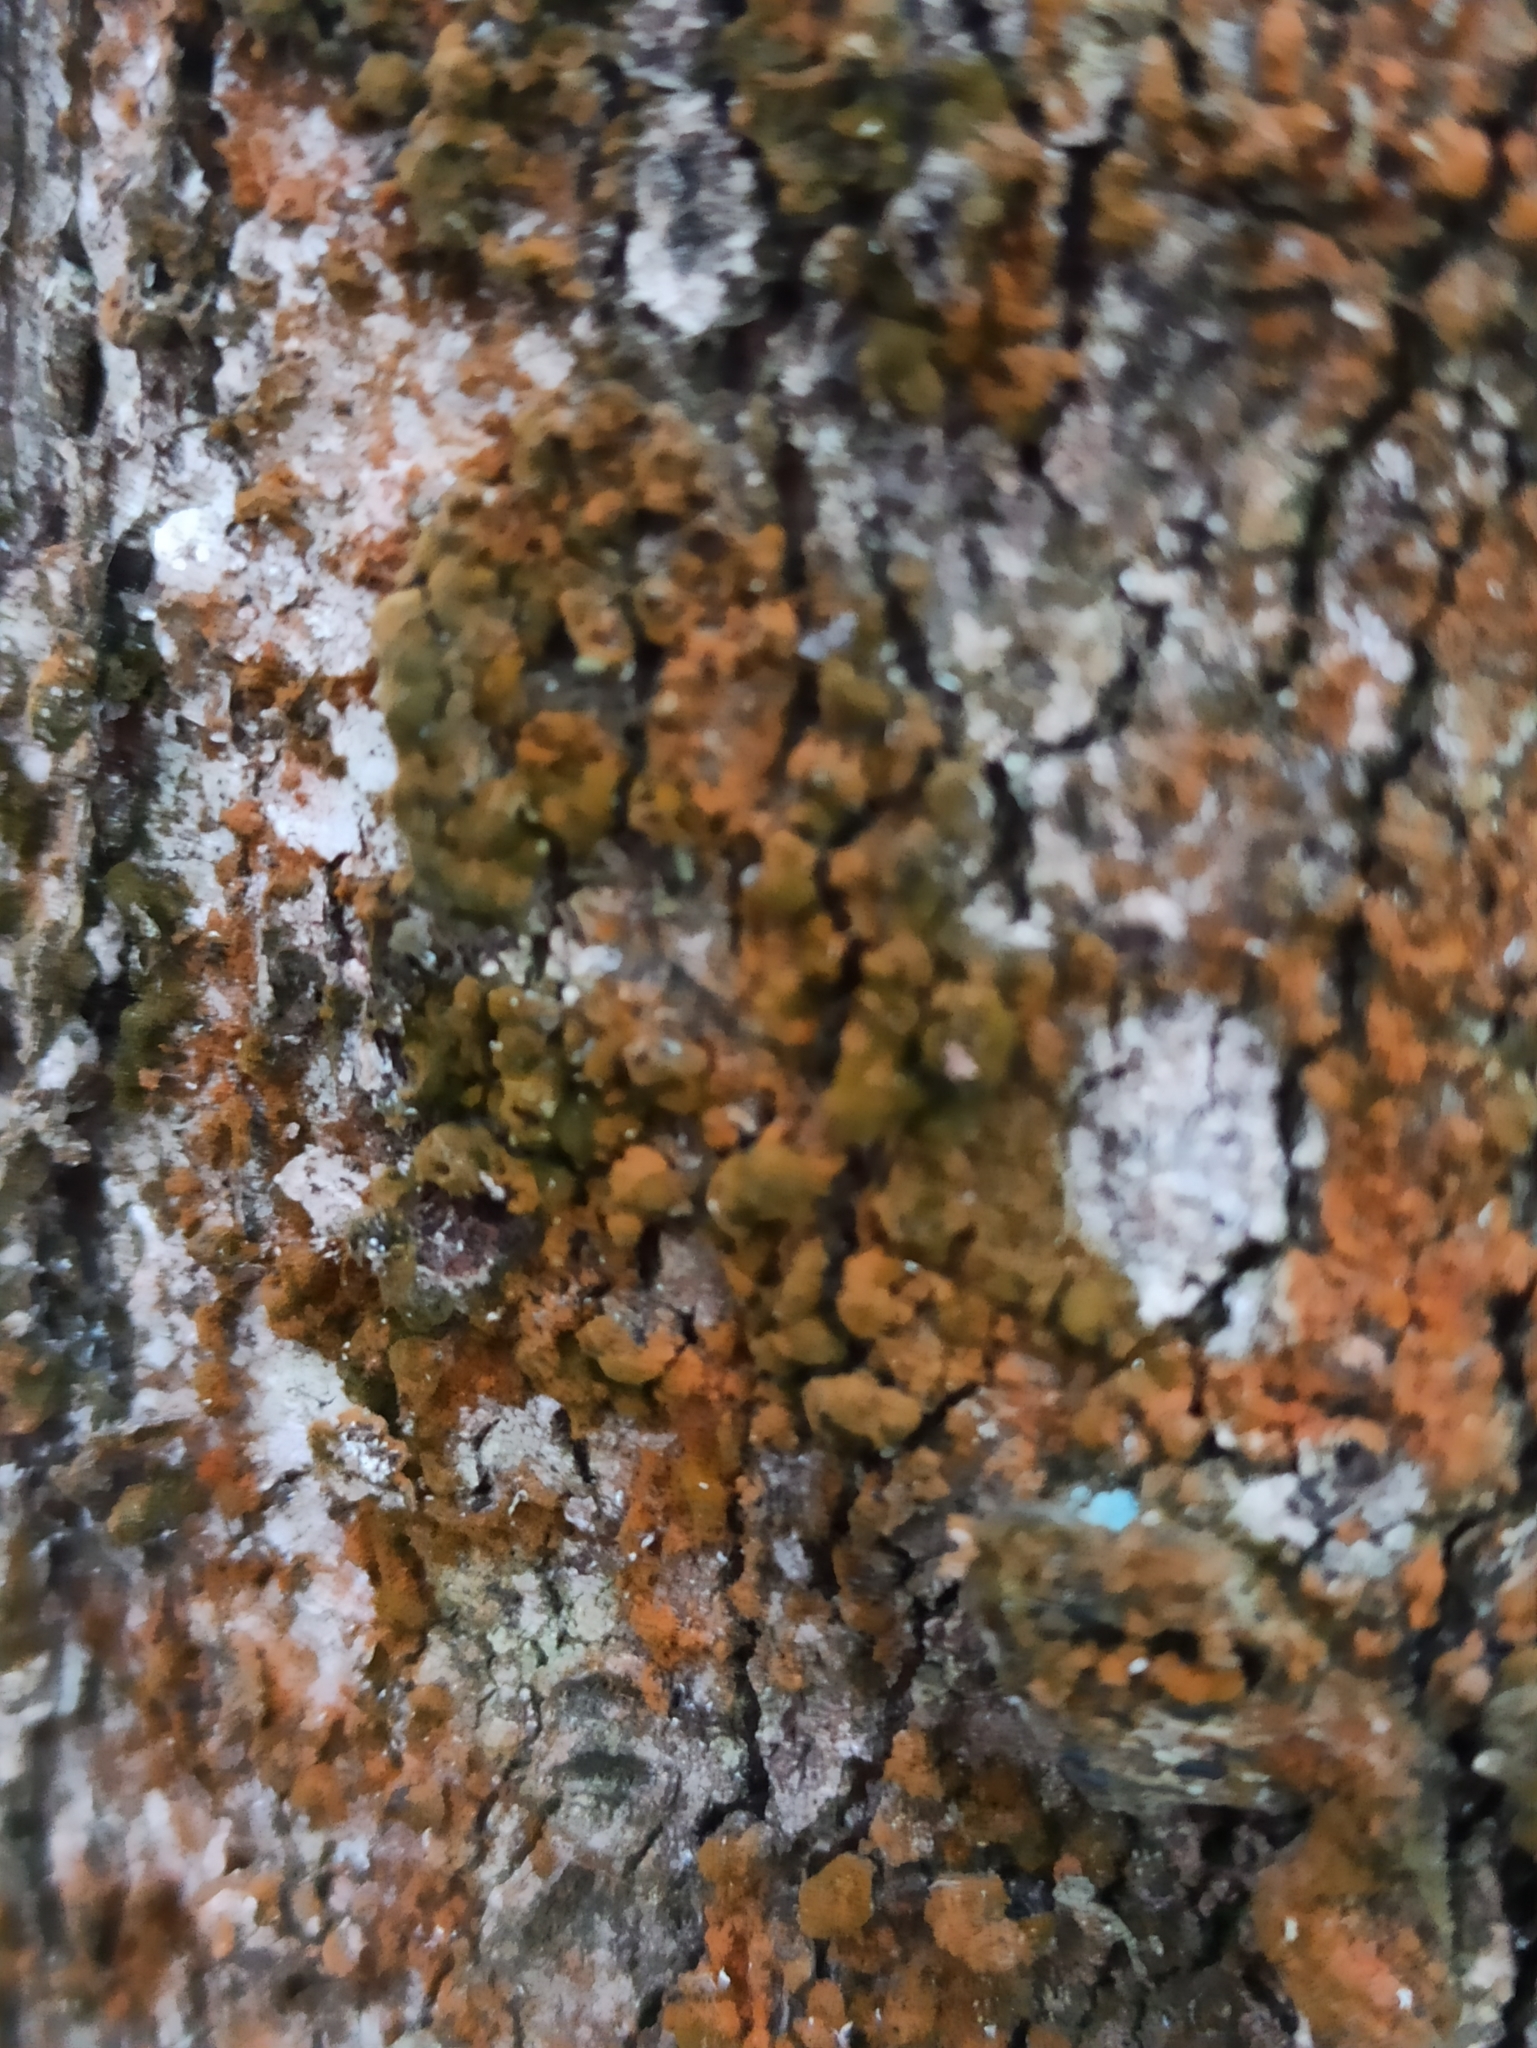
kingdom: Plantae
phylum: Chlorophyta
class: Ulvophyceae
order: Trentepohliales
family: Trentepohliaceae
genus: Trentepohlia
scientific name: Trentepohlia
